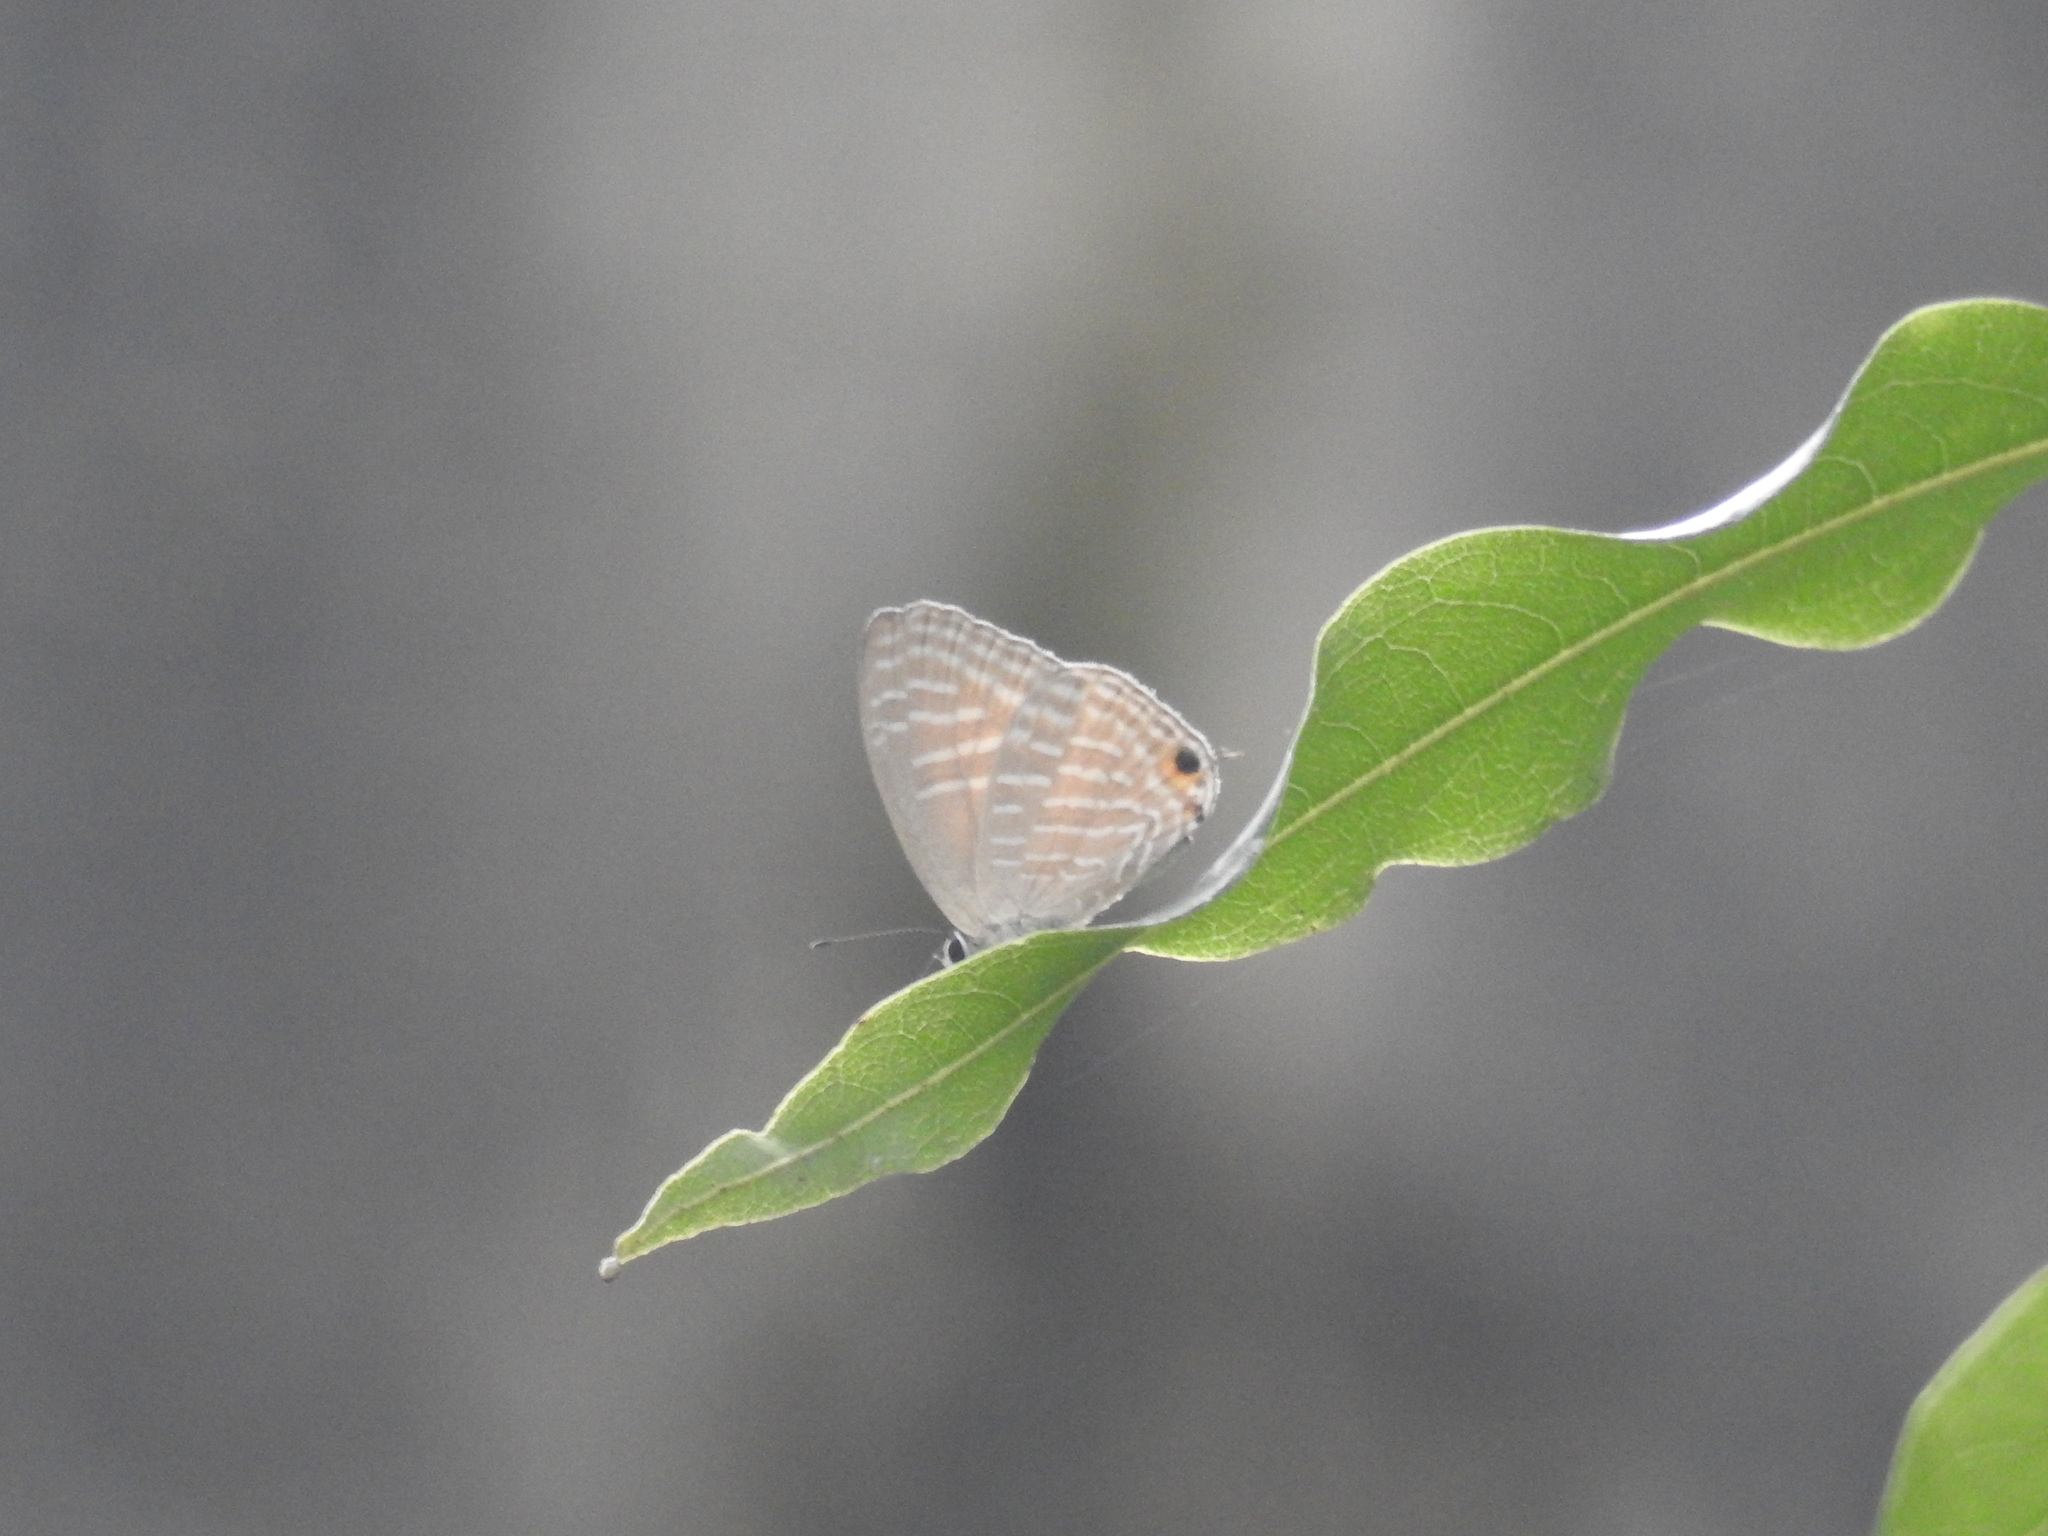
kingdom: Animalia
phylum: Arthropoda
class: Insecta
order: Lepidoptera
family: Lycaenidae
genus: Jamides
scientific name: Jamides alecto
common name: Metallic cerulean
